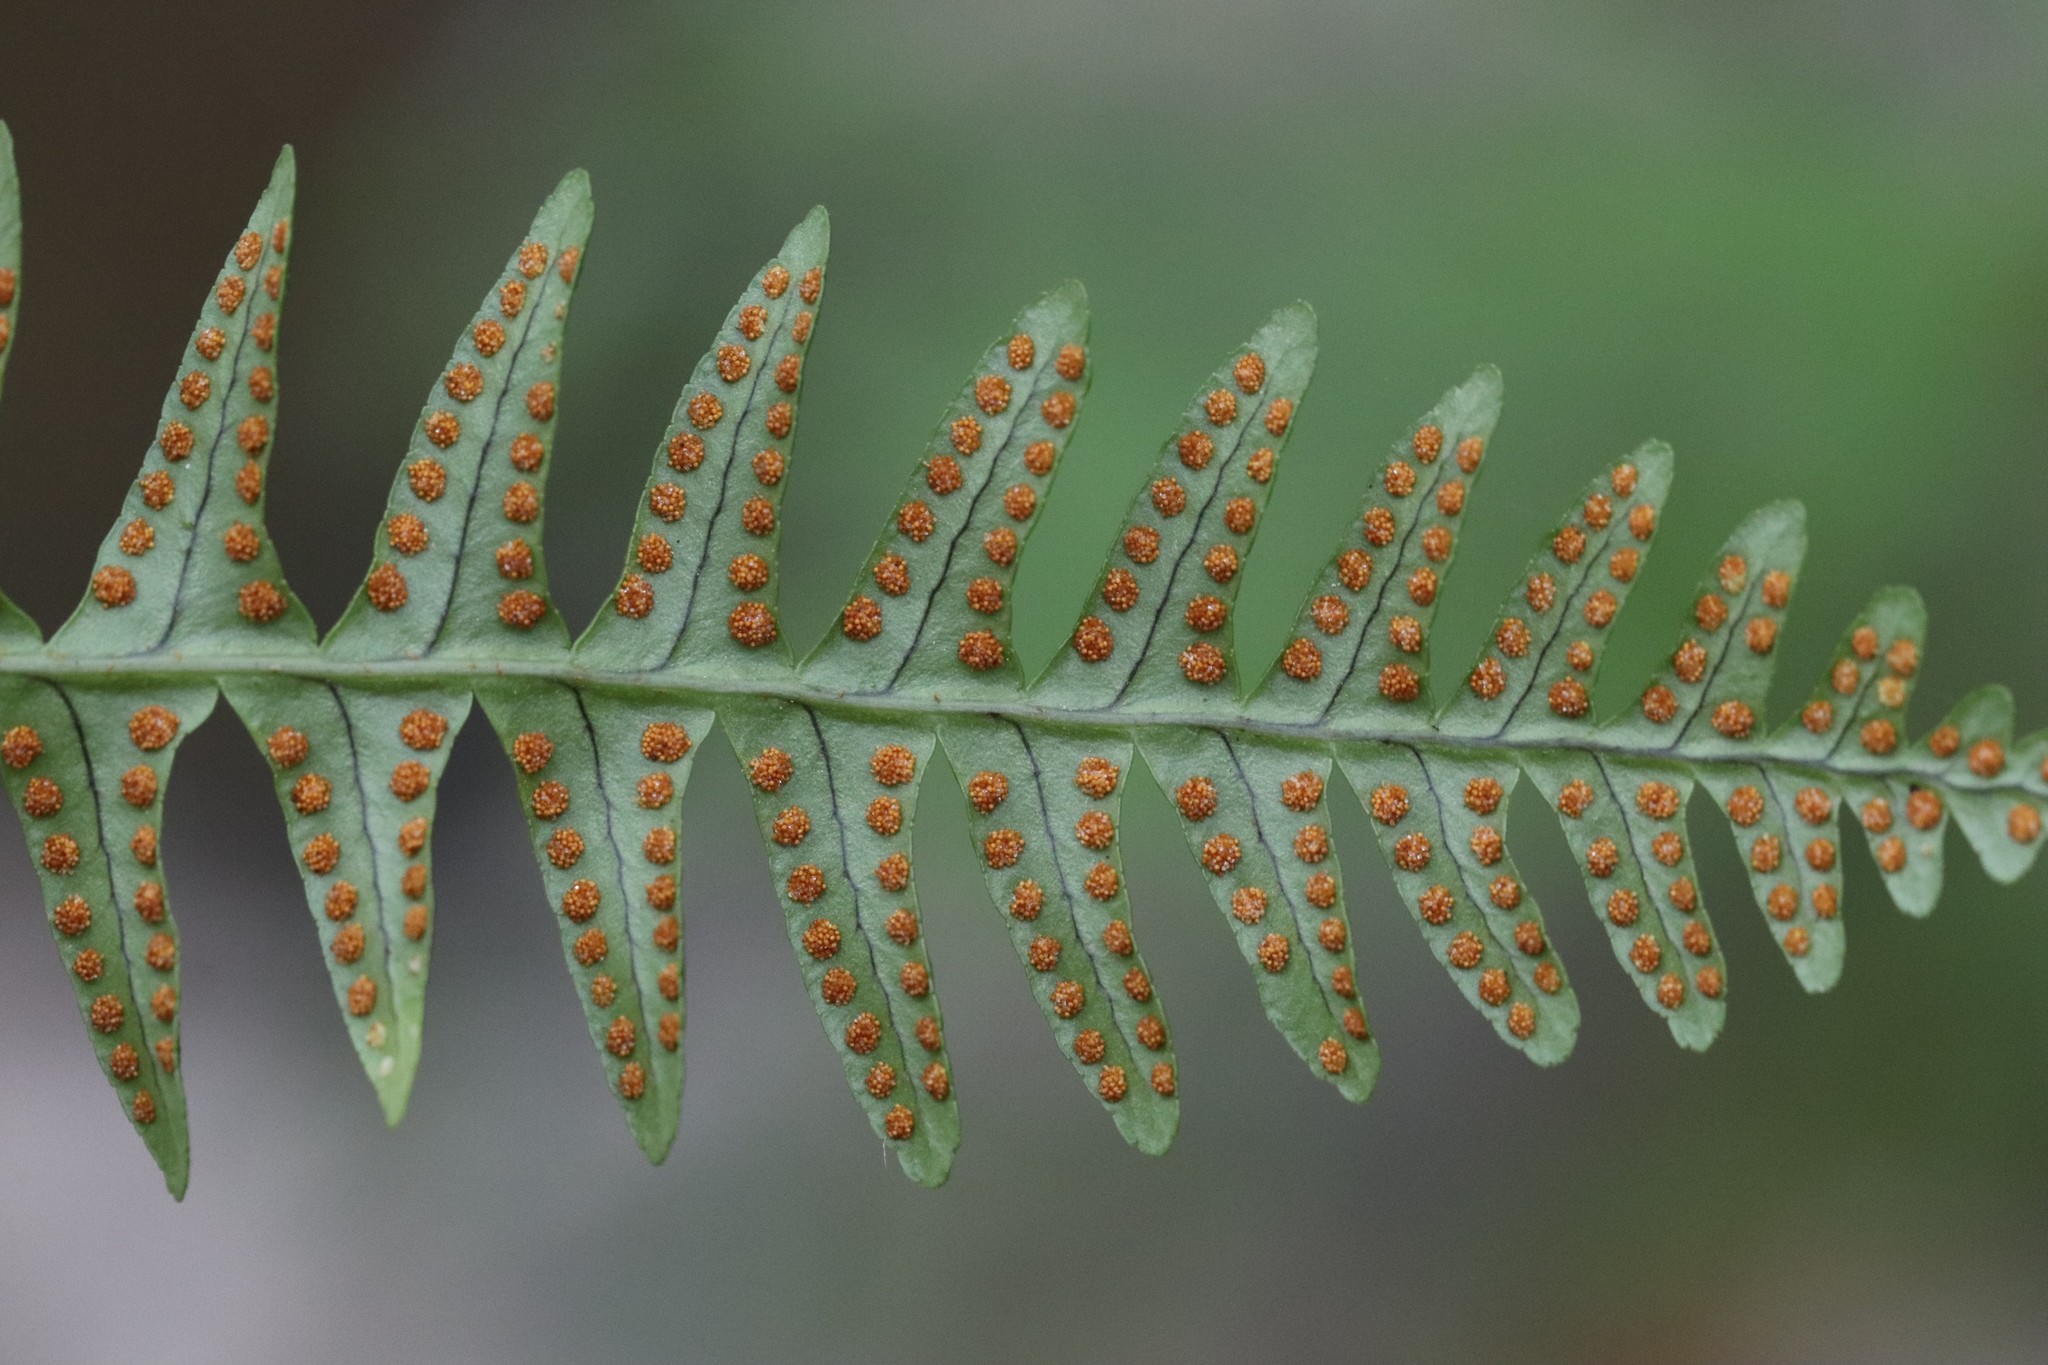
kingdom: Plantae
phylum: Tracheophyta
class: Polypodiopsida
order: Polypodiales
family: Polypodiaceae
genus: Polypodium
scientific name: Polypodium sibiricum
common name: Siberian polypody
